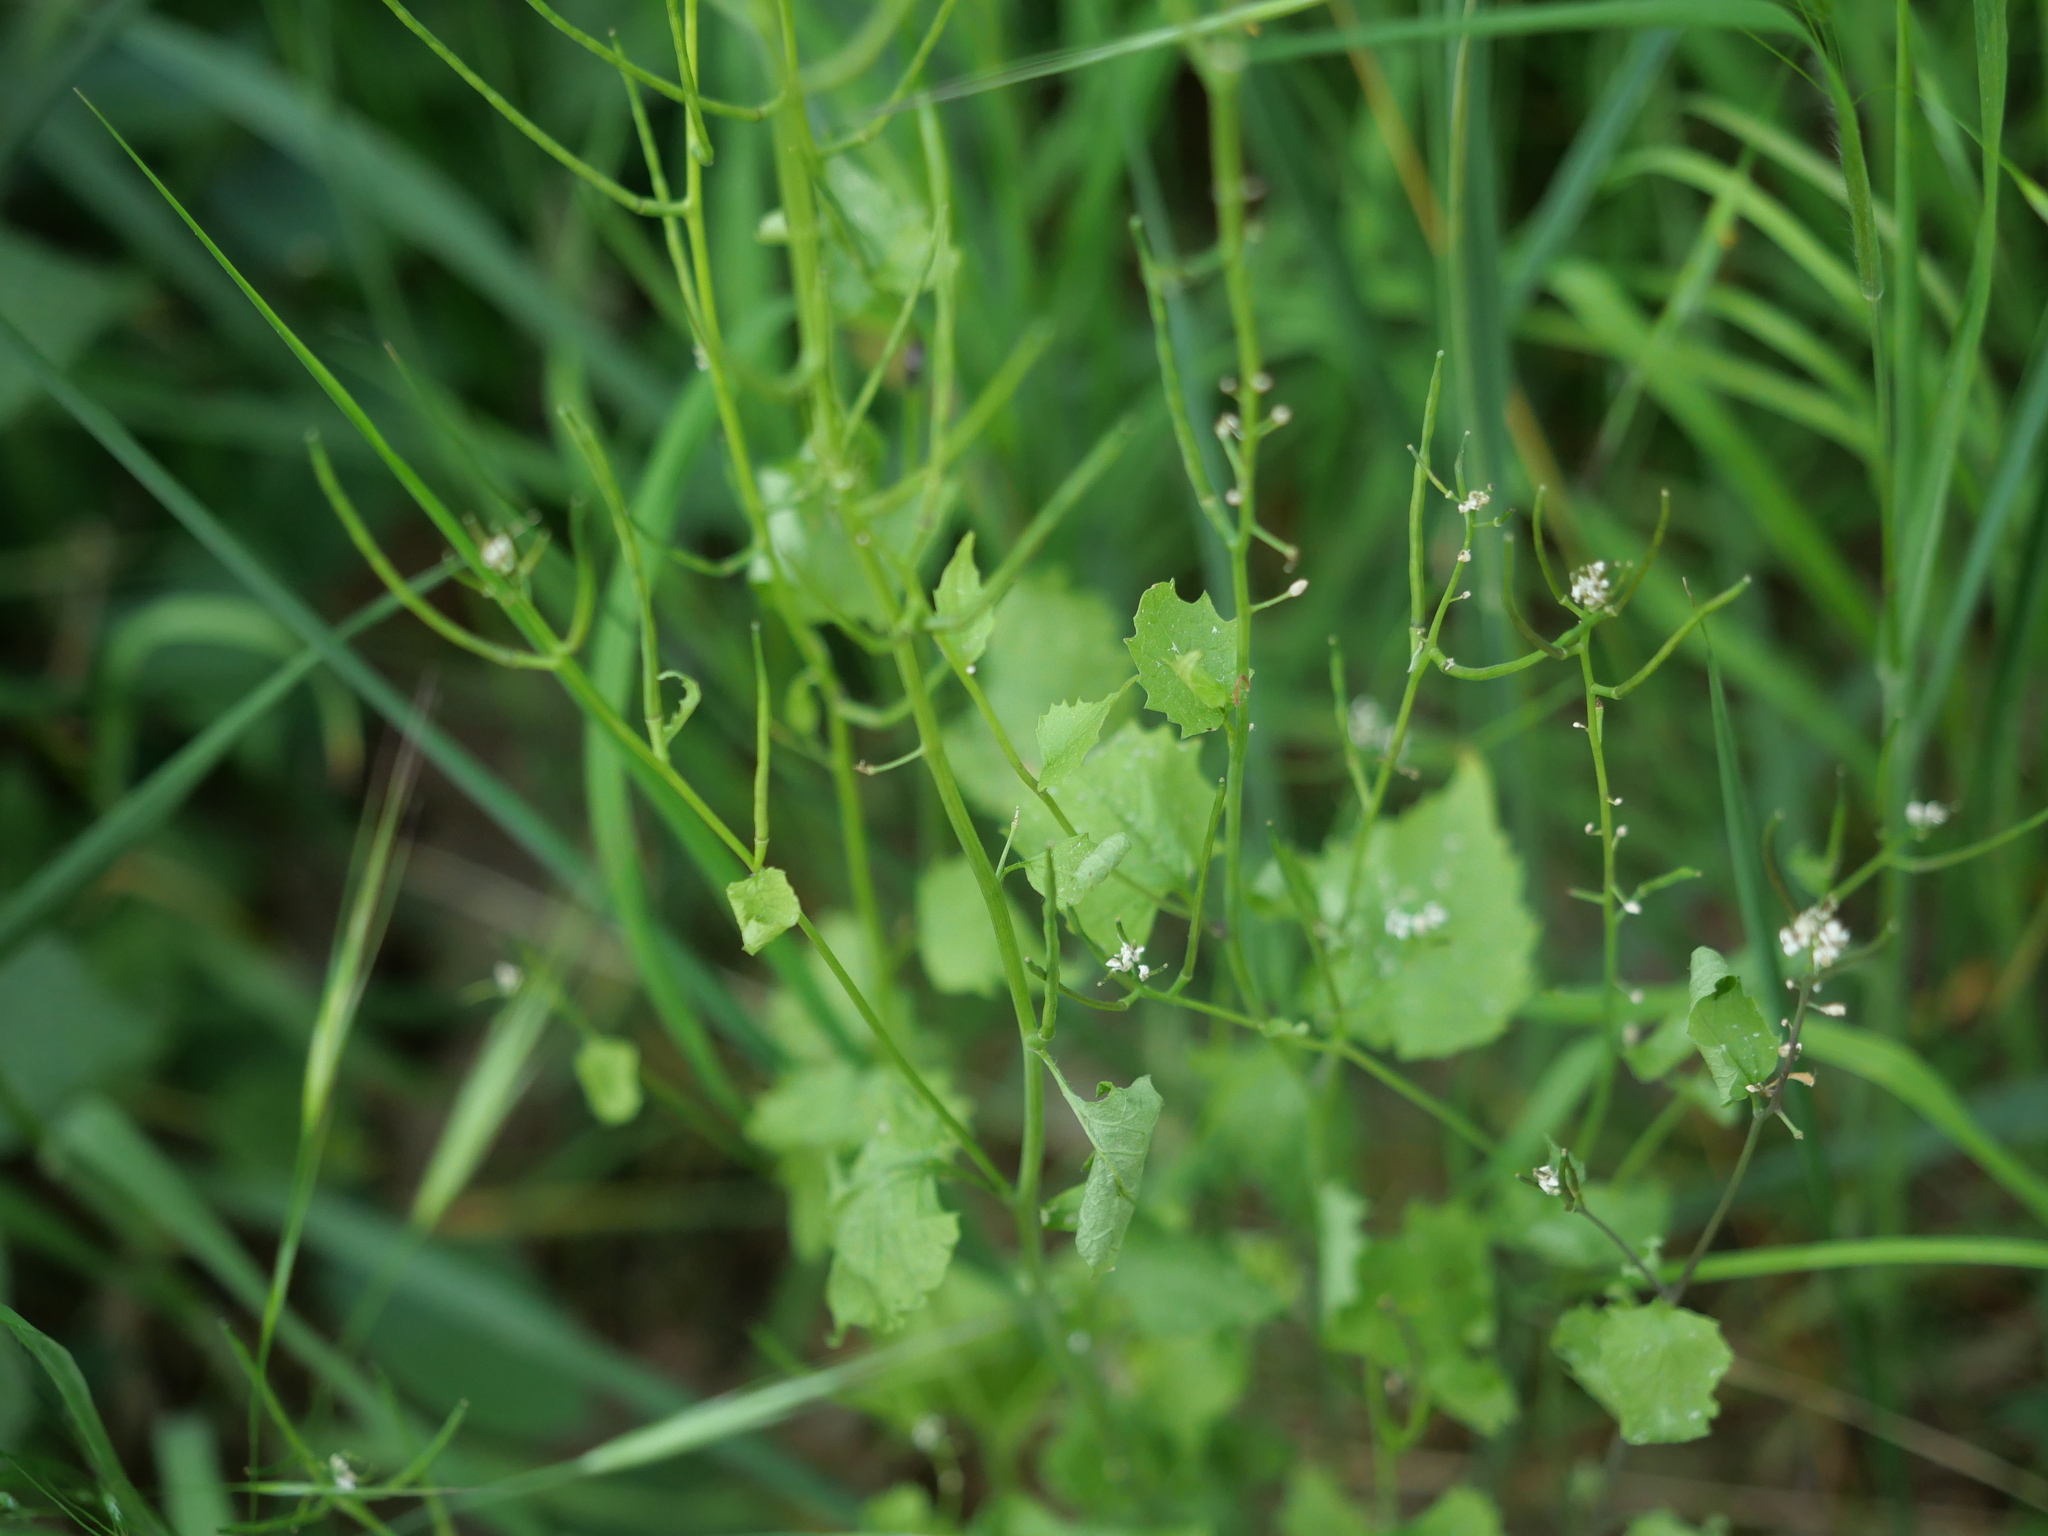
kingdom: Plantae
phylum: Tracheophyta
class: Magnoliopsida
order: Brassicales
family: Brassicaceae
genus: Alliaria
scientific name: Alliaria petiolata
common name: Garlic mustard
